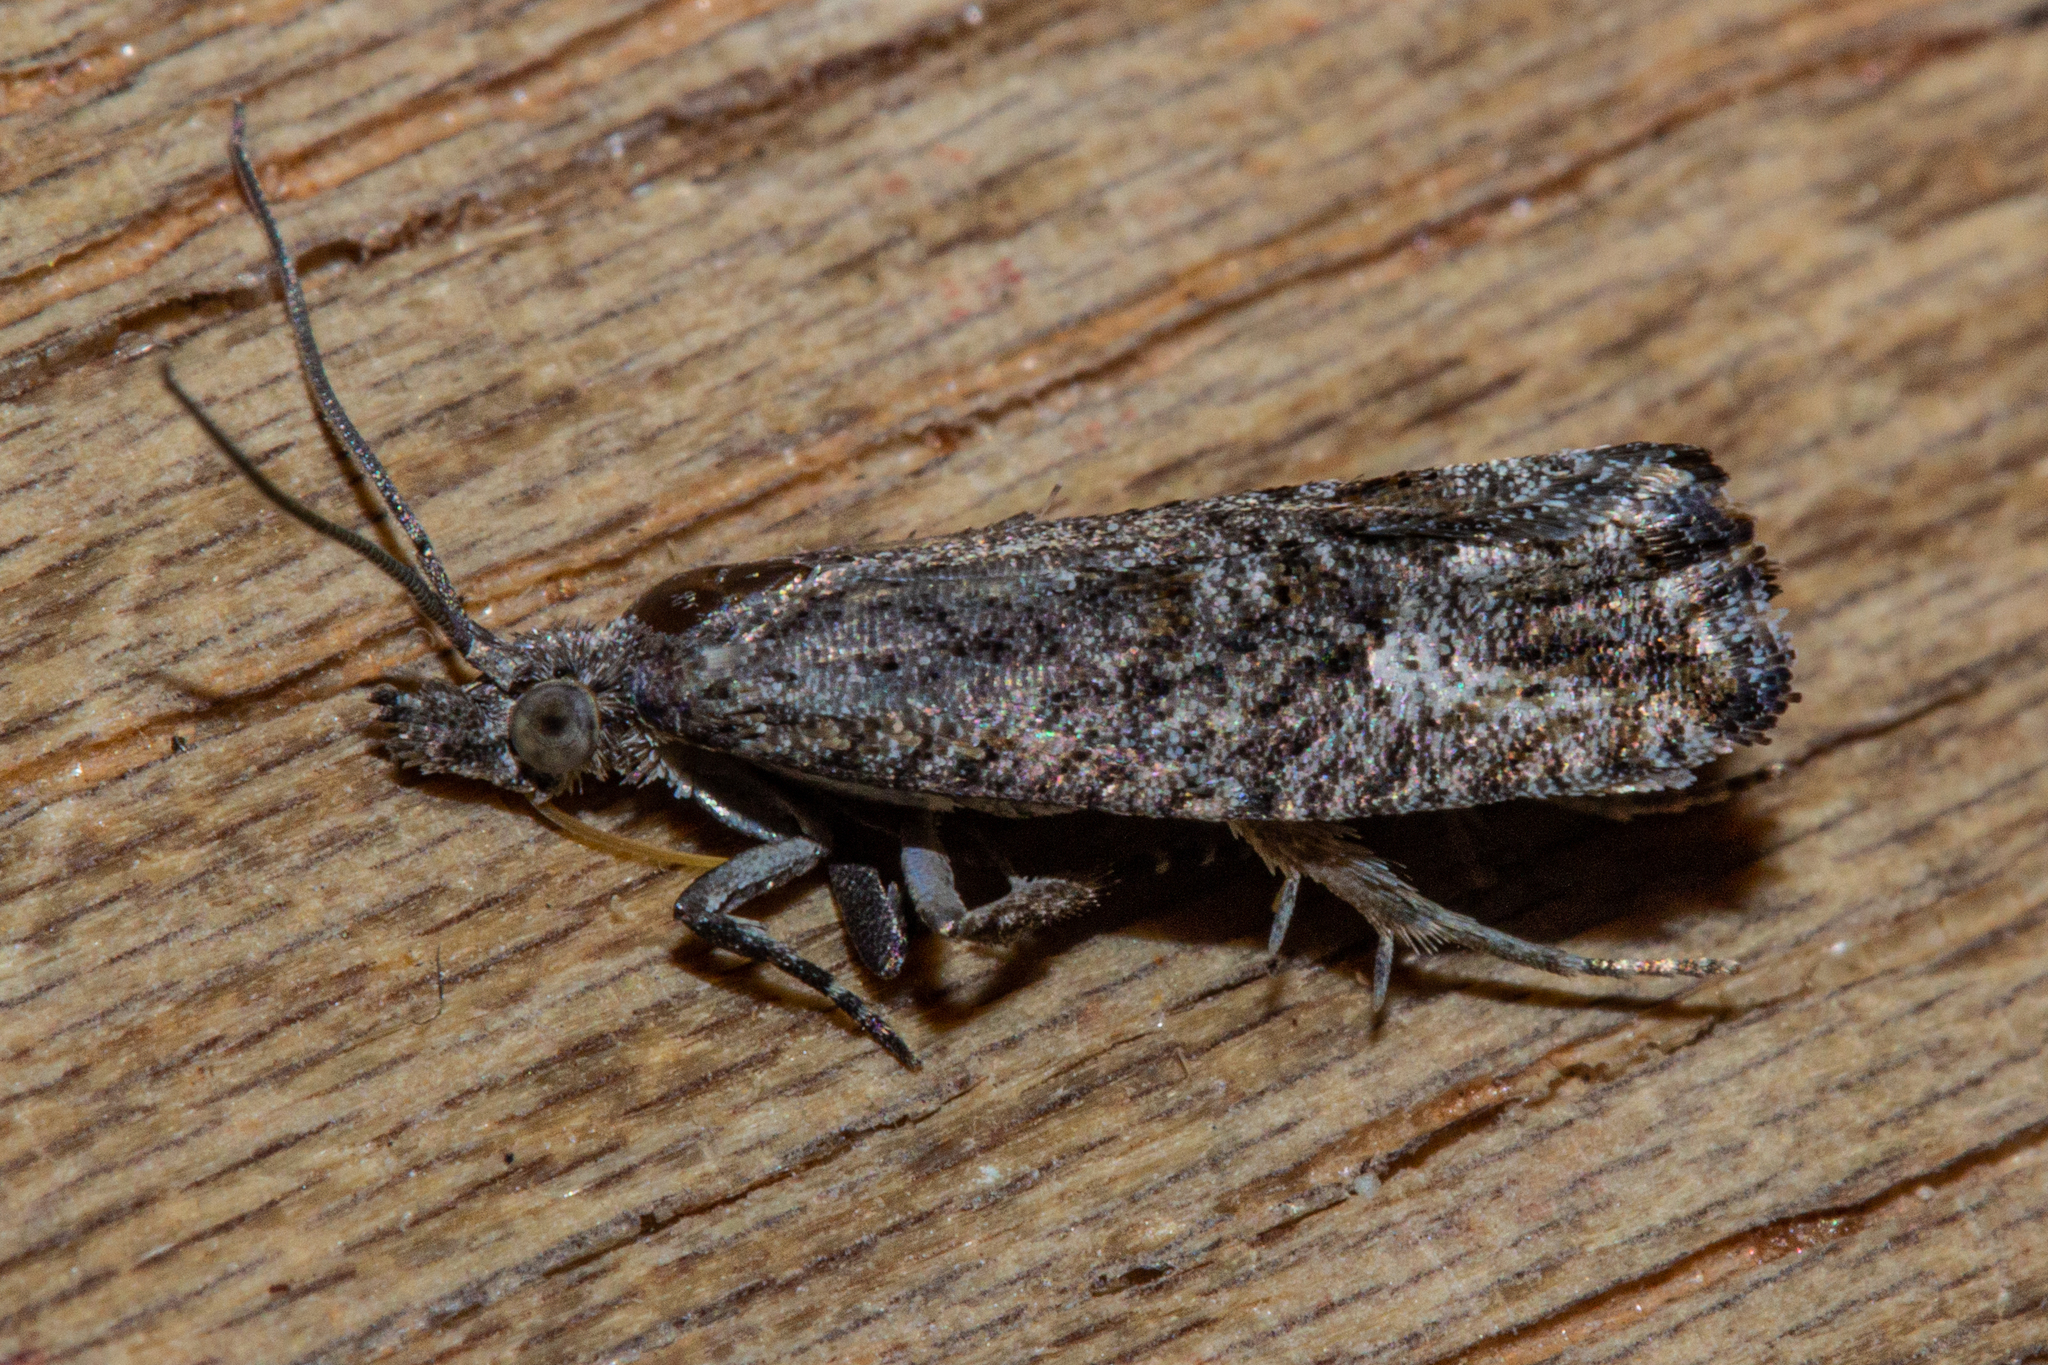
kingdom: Animalia
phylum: Arthropoda
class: Insecta
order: Lepidoptera
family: Tortricidae
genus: Strepsicrates
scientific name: Strepsicrates ejectana
